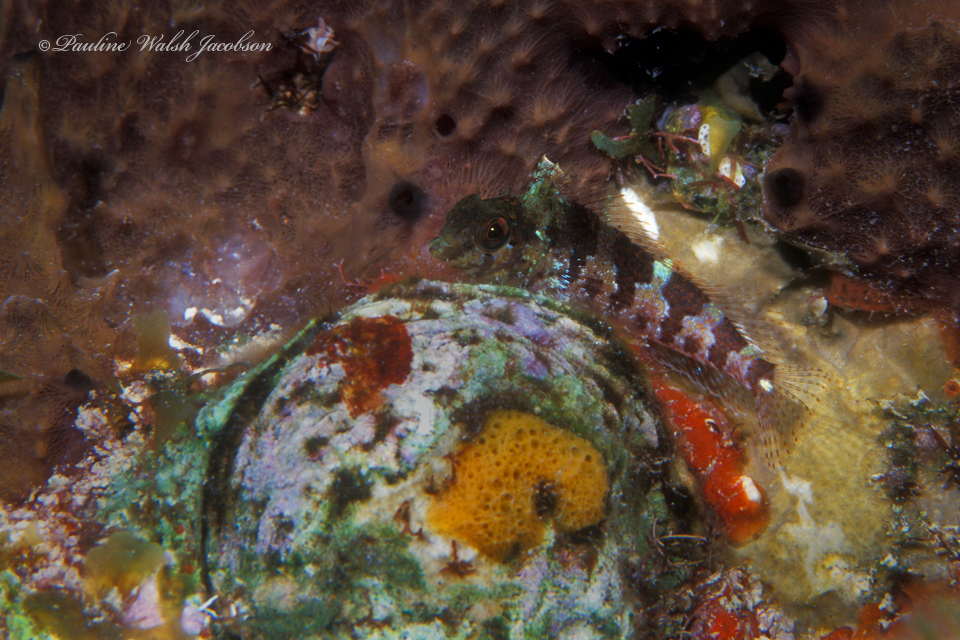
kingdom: Animalia
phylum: Chordata
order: Perciformes
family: Labrisomidae
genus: Malacoctenus
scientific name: Malacoctenus triangulatus
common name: Saddled blenny
